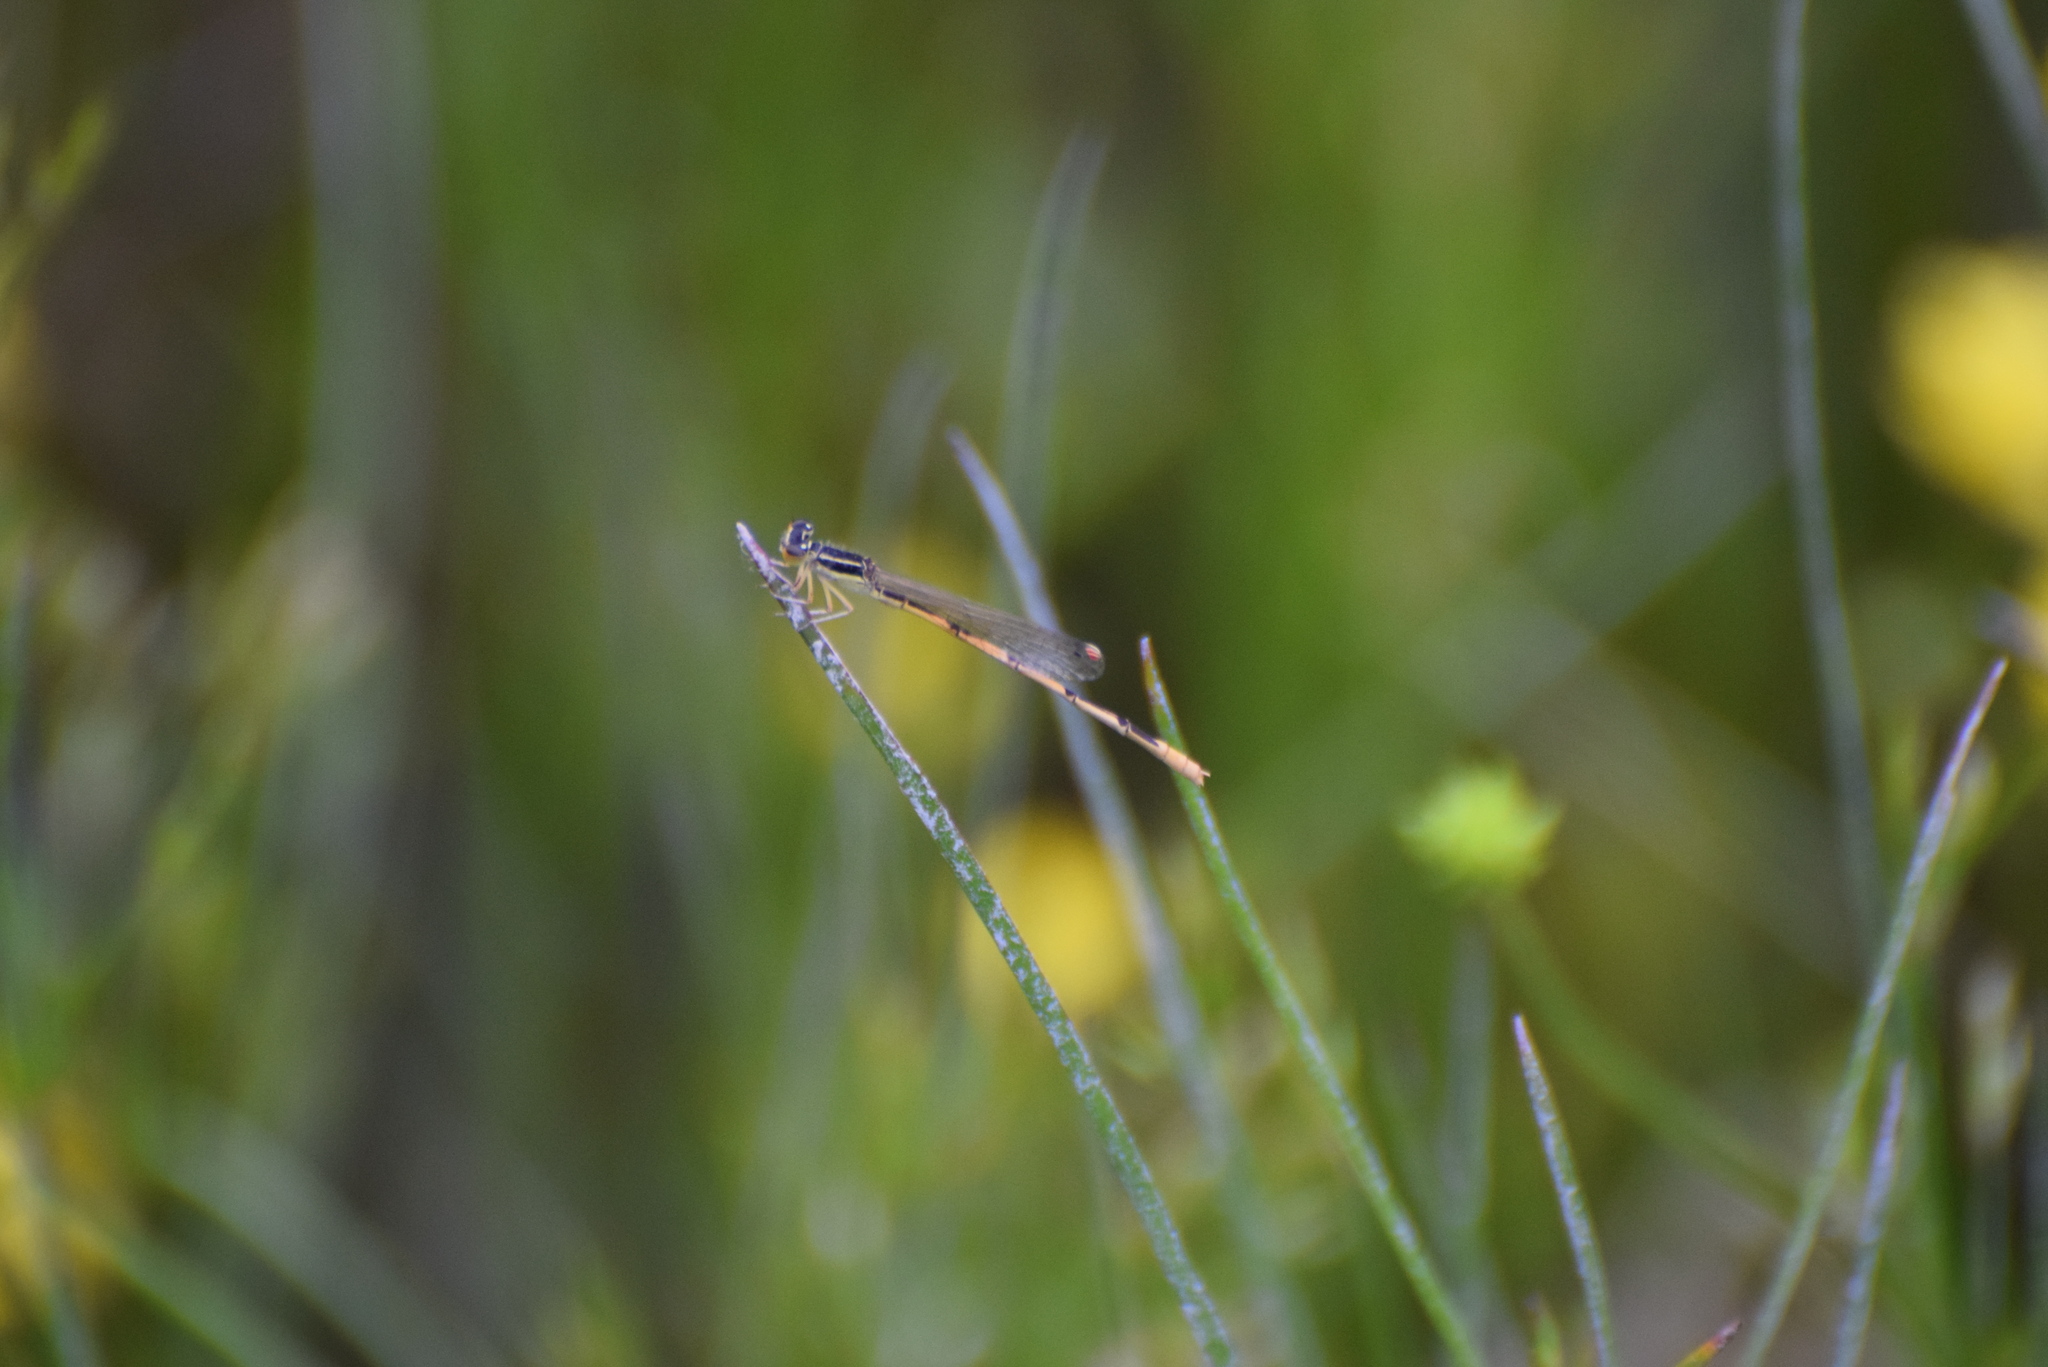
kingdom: Animalia
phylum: Arthropoda
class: Insecta
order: Odonata
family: Coenagrionidae
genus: Ischnura
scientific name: Ischnura hastata
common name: Citrine forktail
